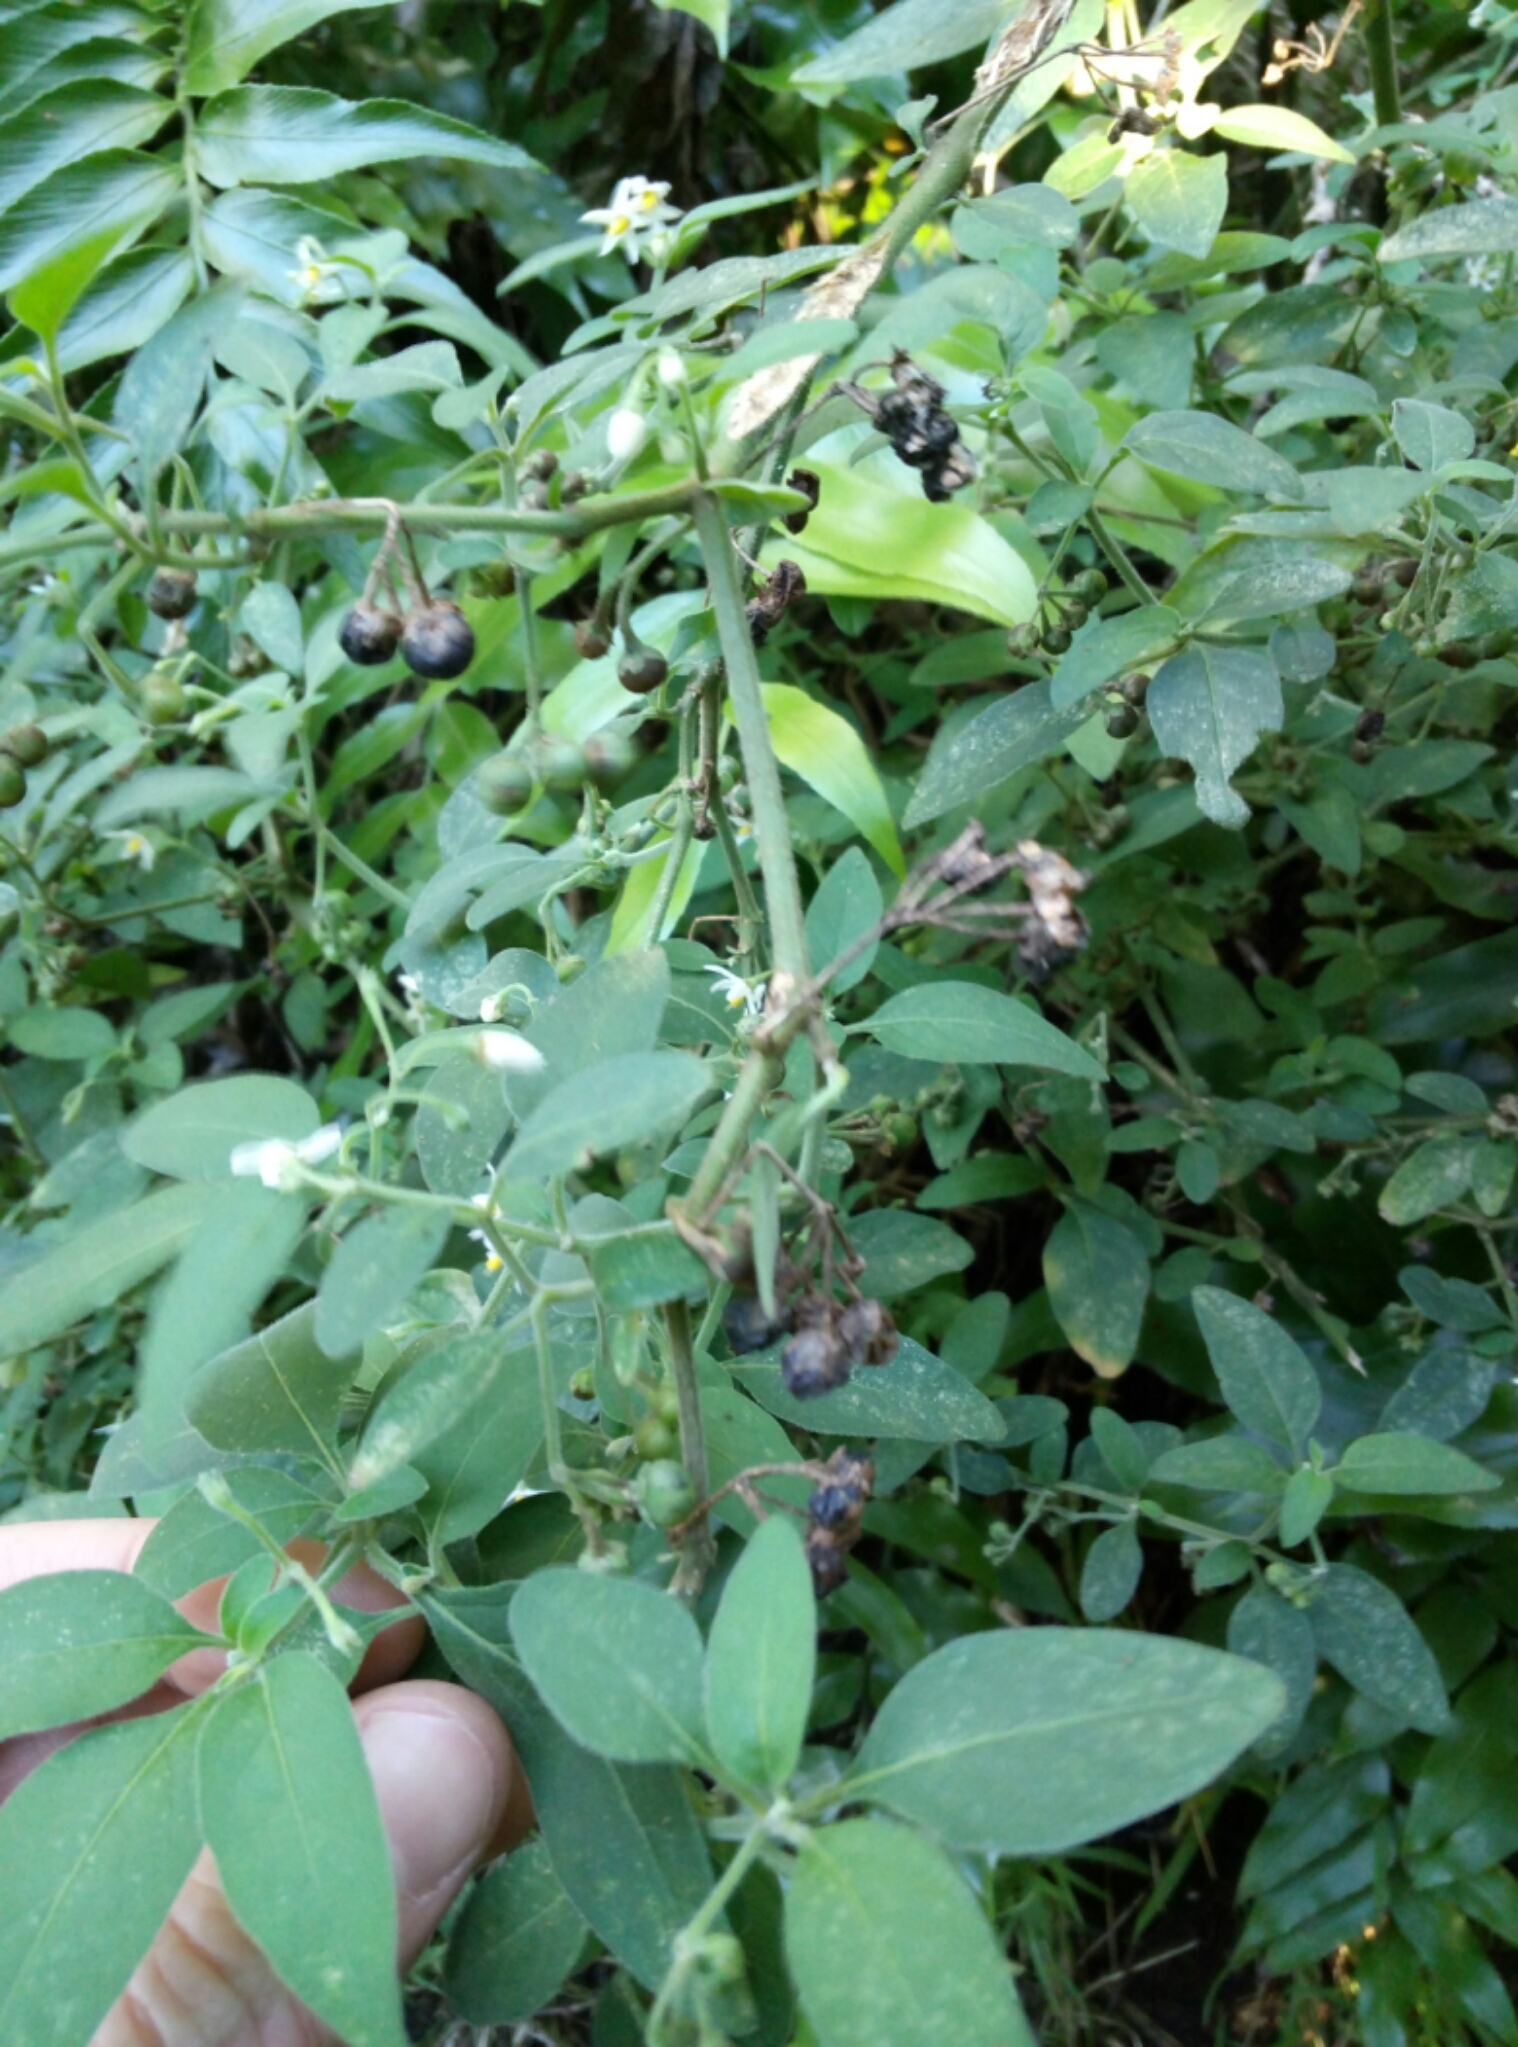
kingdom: Plantae
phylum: Tracheophyta
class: Magnoliopsida
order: Solanales
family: Solanaceae
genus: Solanum
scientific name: Solanum chenopodioides
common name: Tall nightshade
